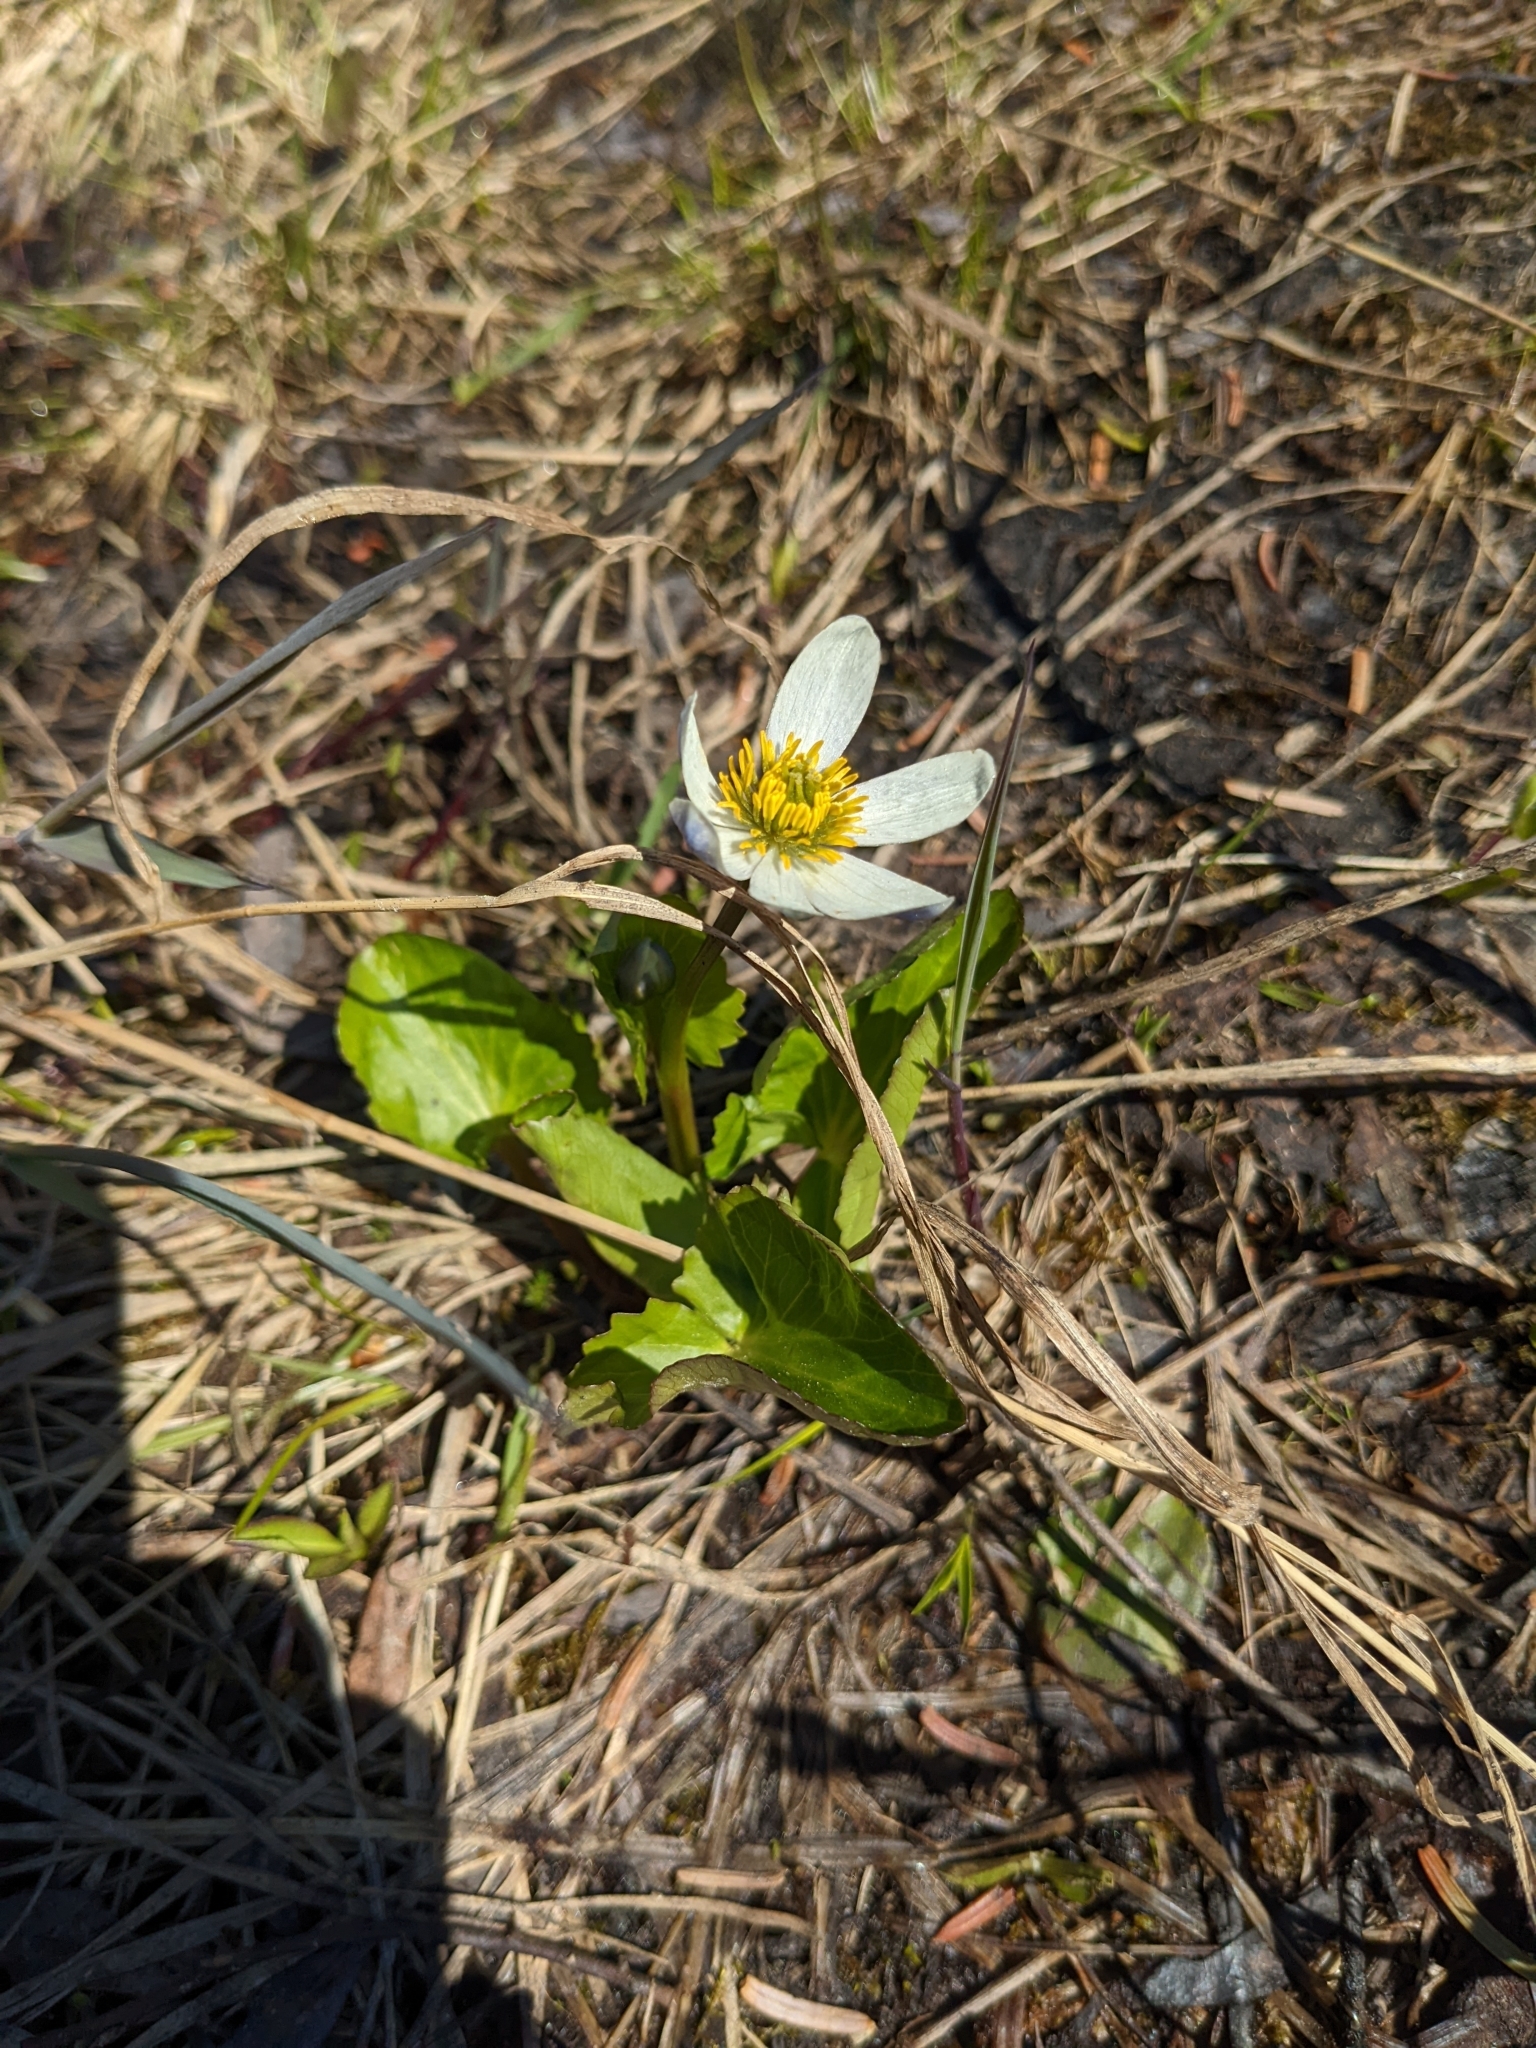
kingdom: Plantae
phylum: Tracheophyta
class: Magnoliopsida
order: Ranunculales
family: Ranunculaceae
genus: Caltha
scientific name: Caltha leptosepala
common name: Elkslip
